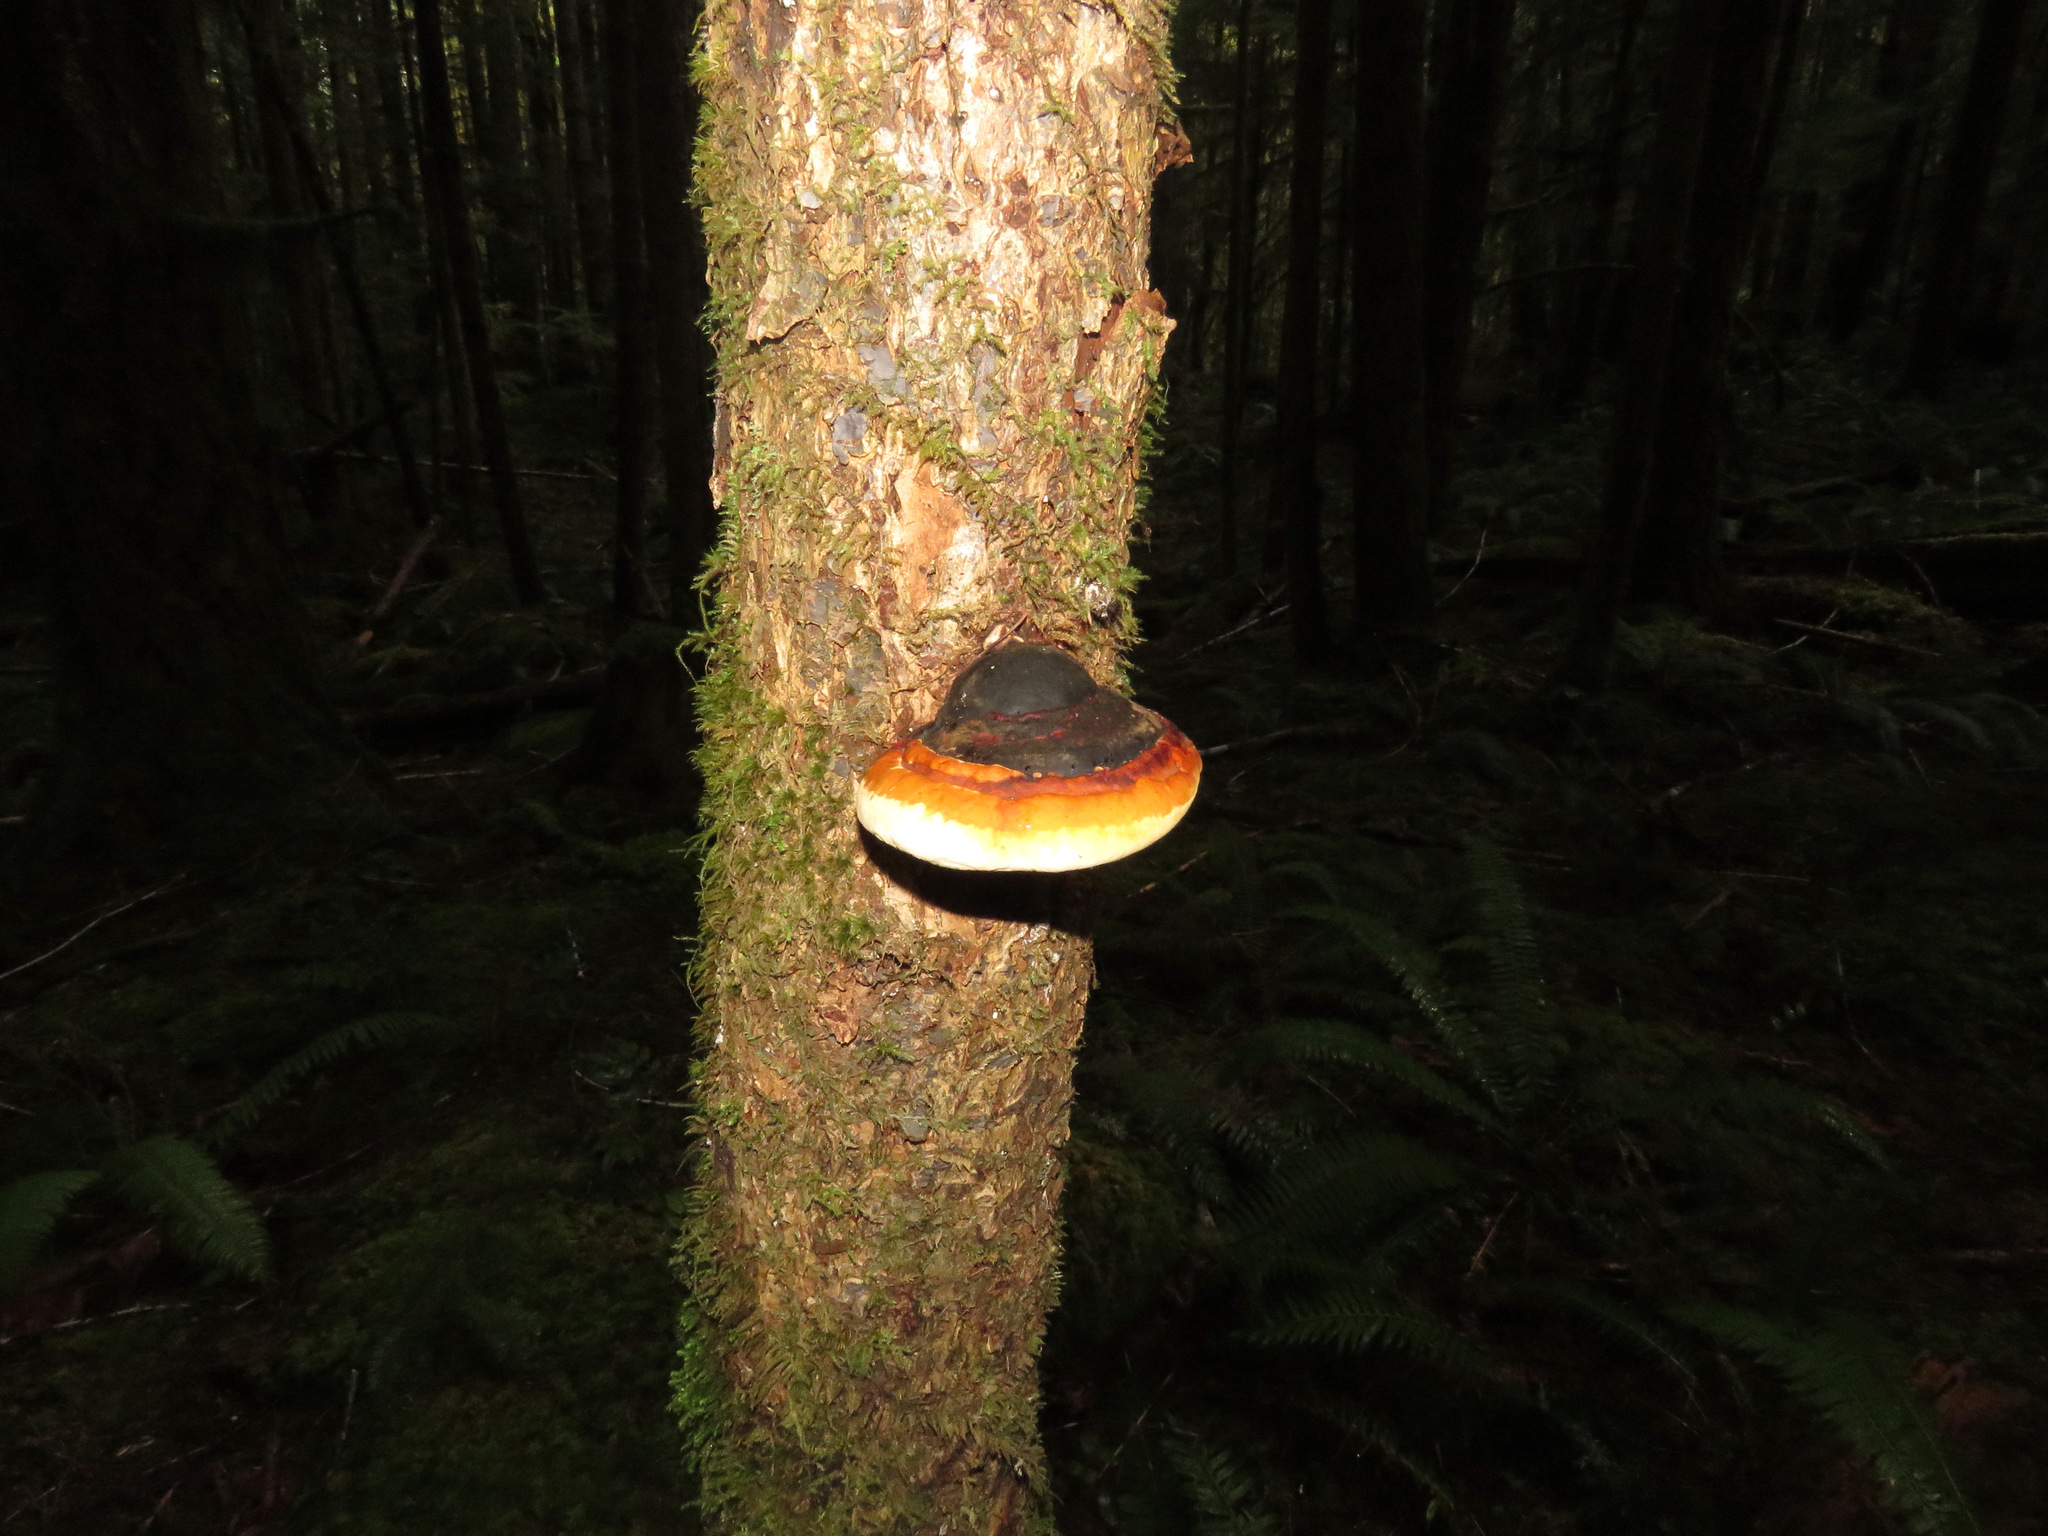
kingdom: Fungi
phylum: Basidiomycota
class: Agaricomycetes
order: Polyporales
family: Fomitopsidaceae
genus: Fomitopsis
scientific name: Fomitopsis mounceae
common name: Northern red belt
